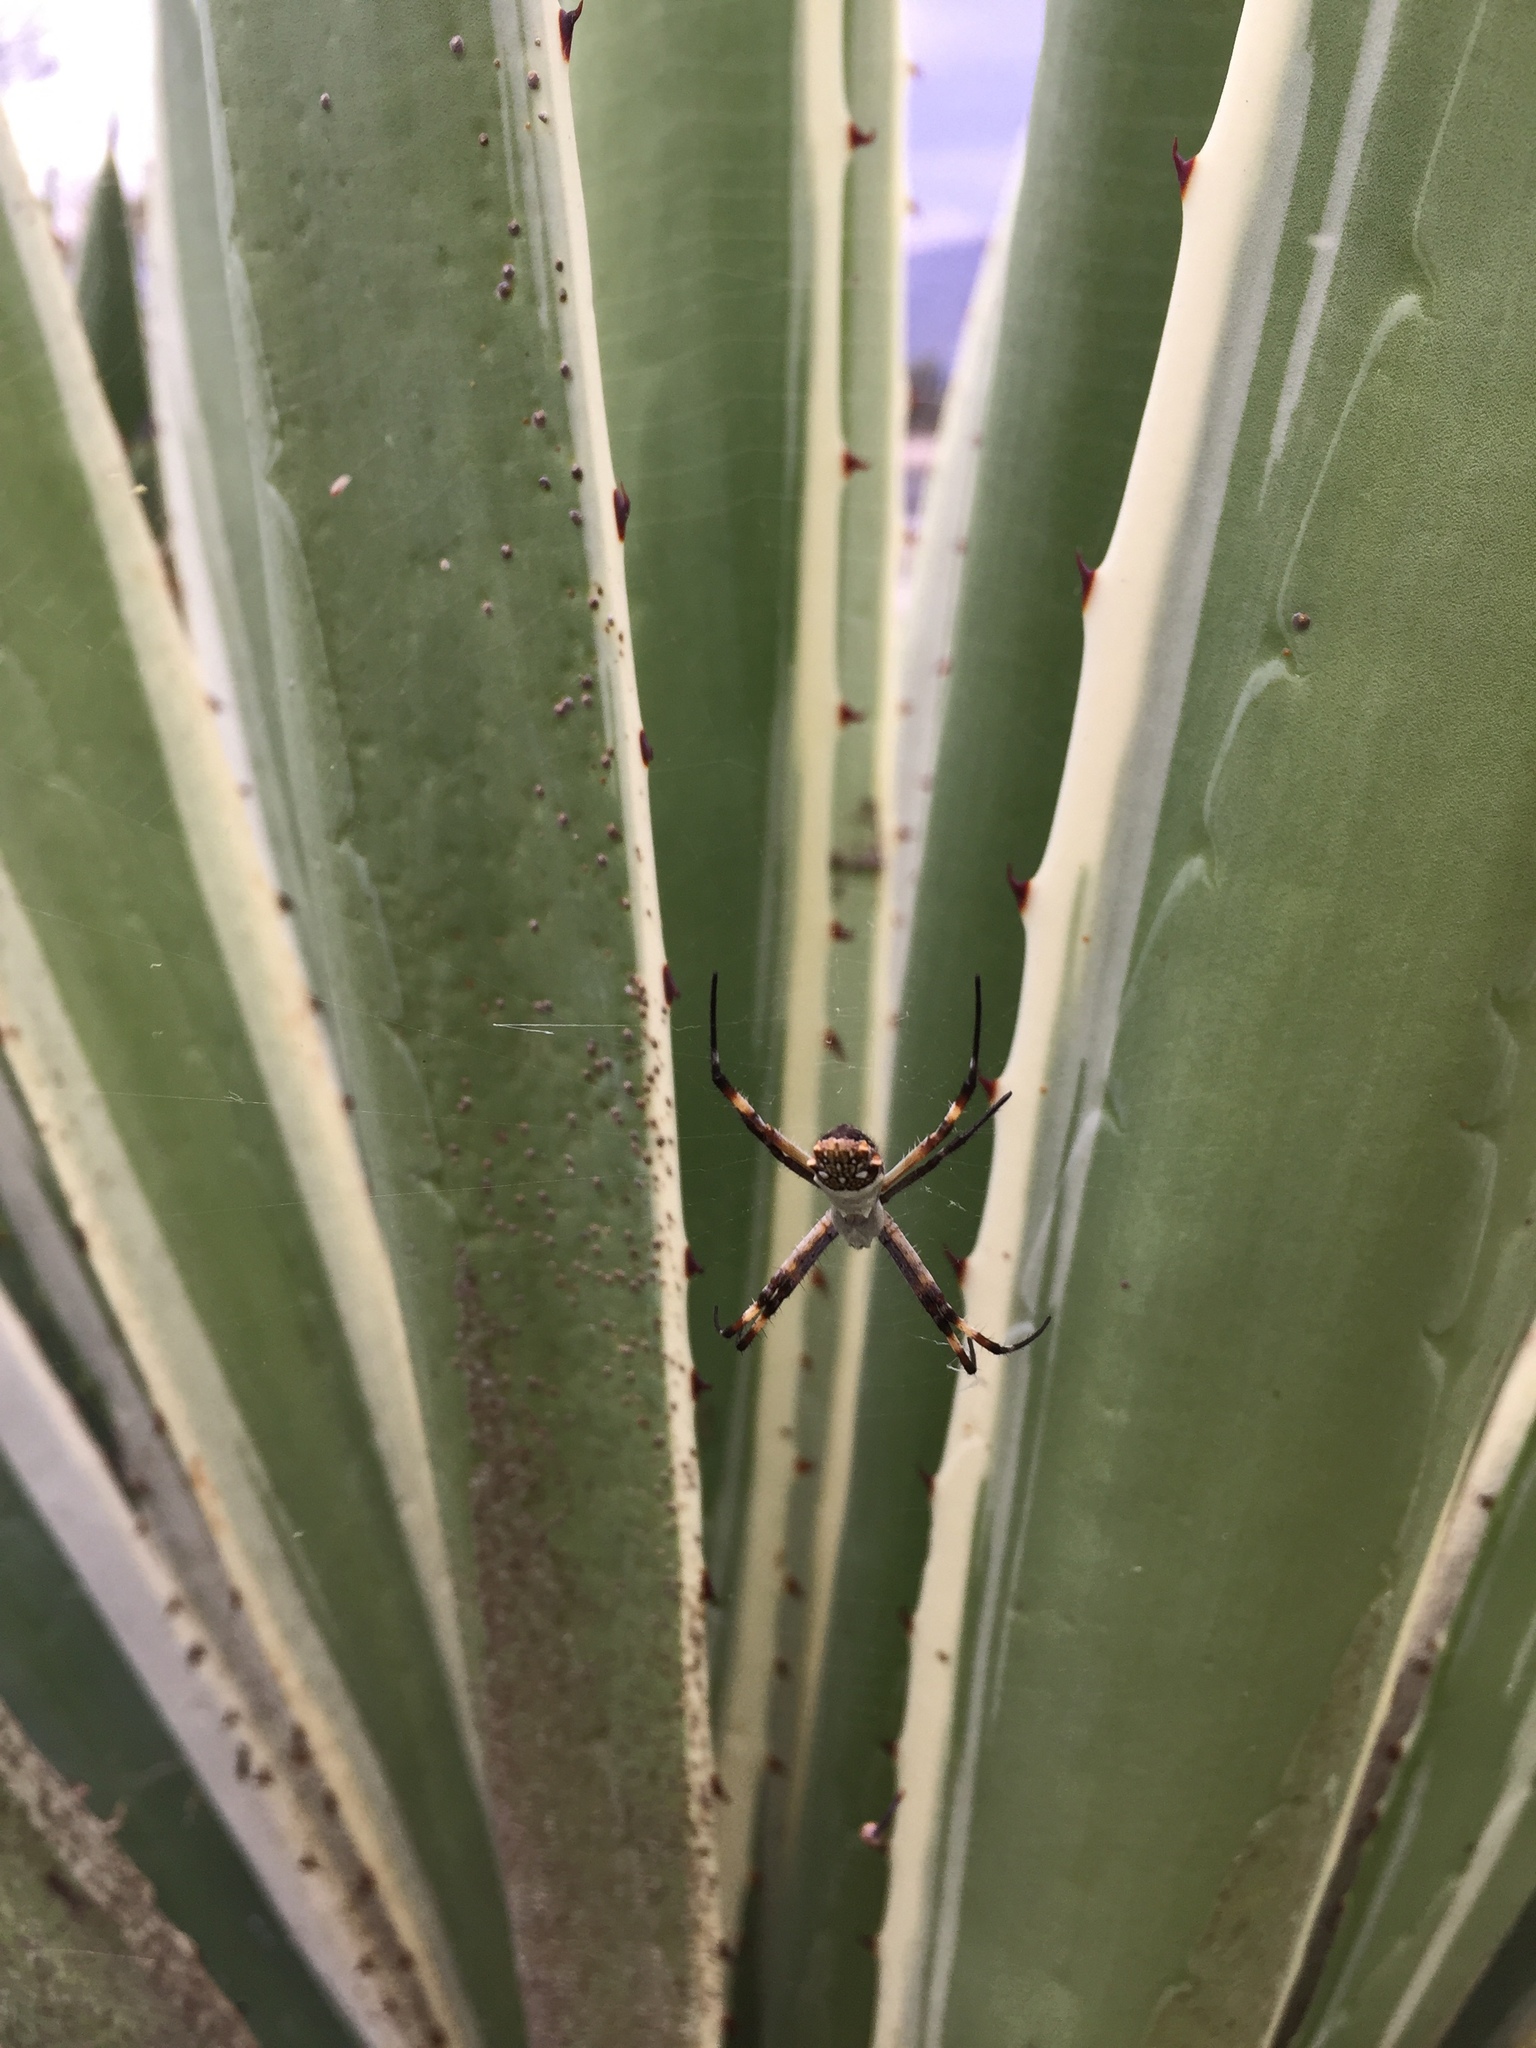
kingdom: Animalia
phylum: Arthropoda
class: Arachnida
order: Araneae
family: Araneidae
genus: Argiope
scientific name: Argiope argentata
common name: Orb weavers
